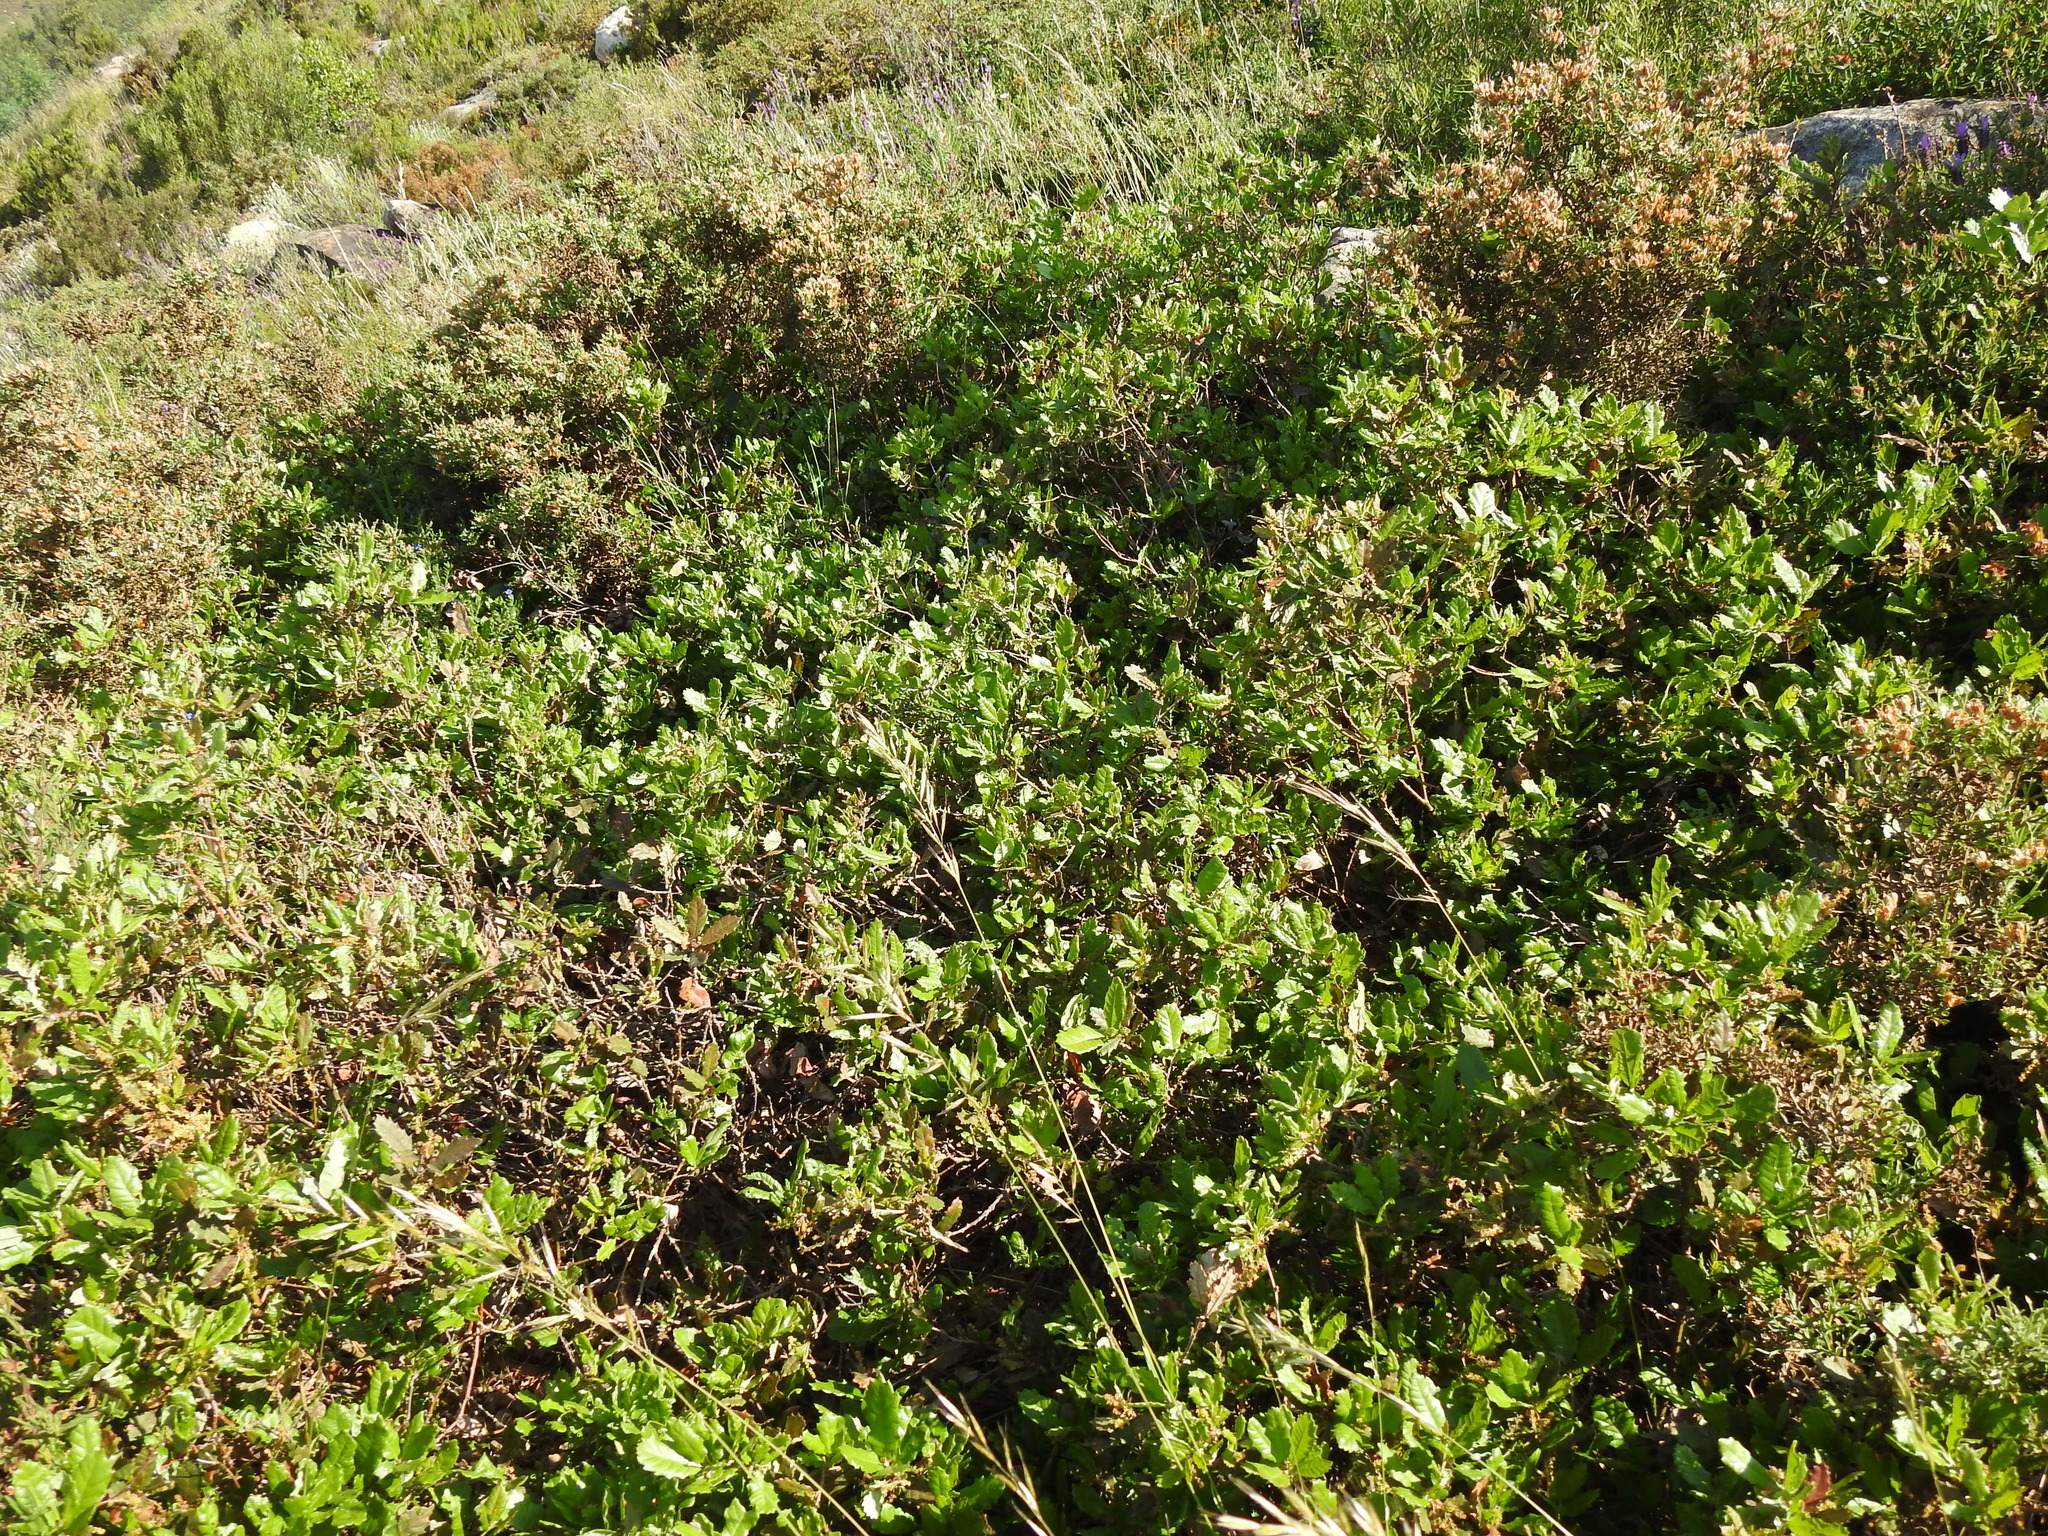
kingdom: Plantae
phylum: Tracheophyta
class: Magnoliopsida
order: Fagales
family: Fagaceae
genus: Quercus
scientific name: Quercus lusitanica
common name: Scrub gall oak
